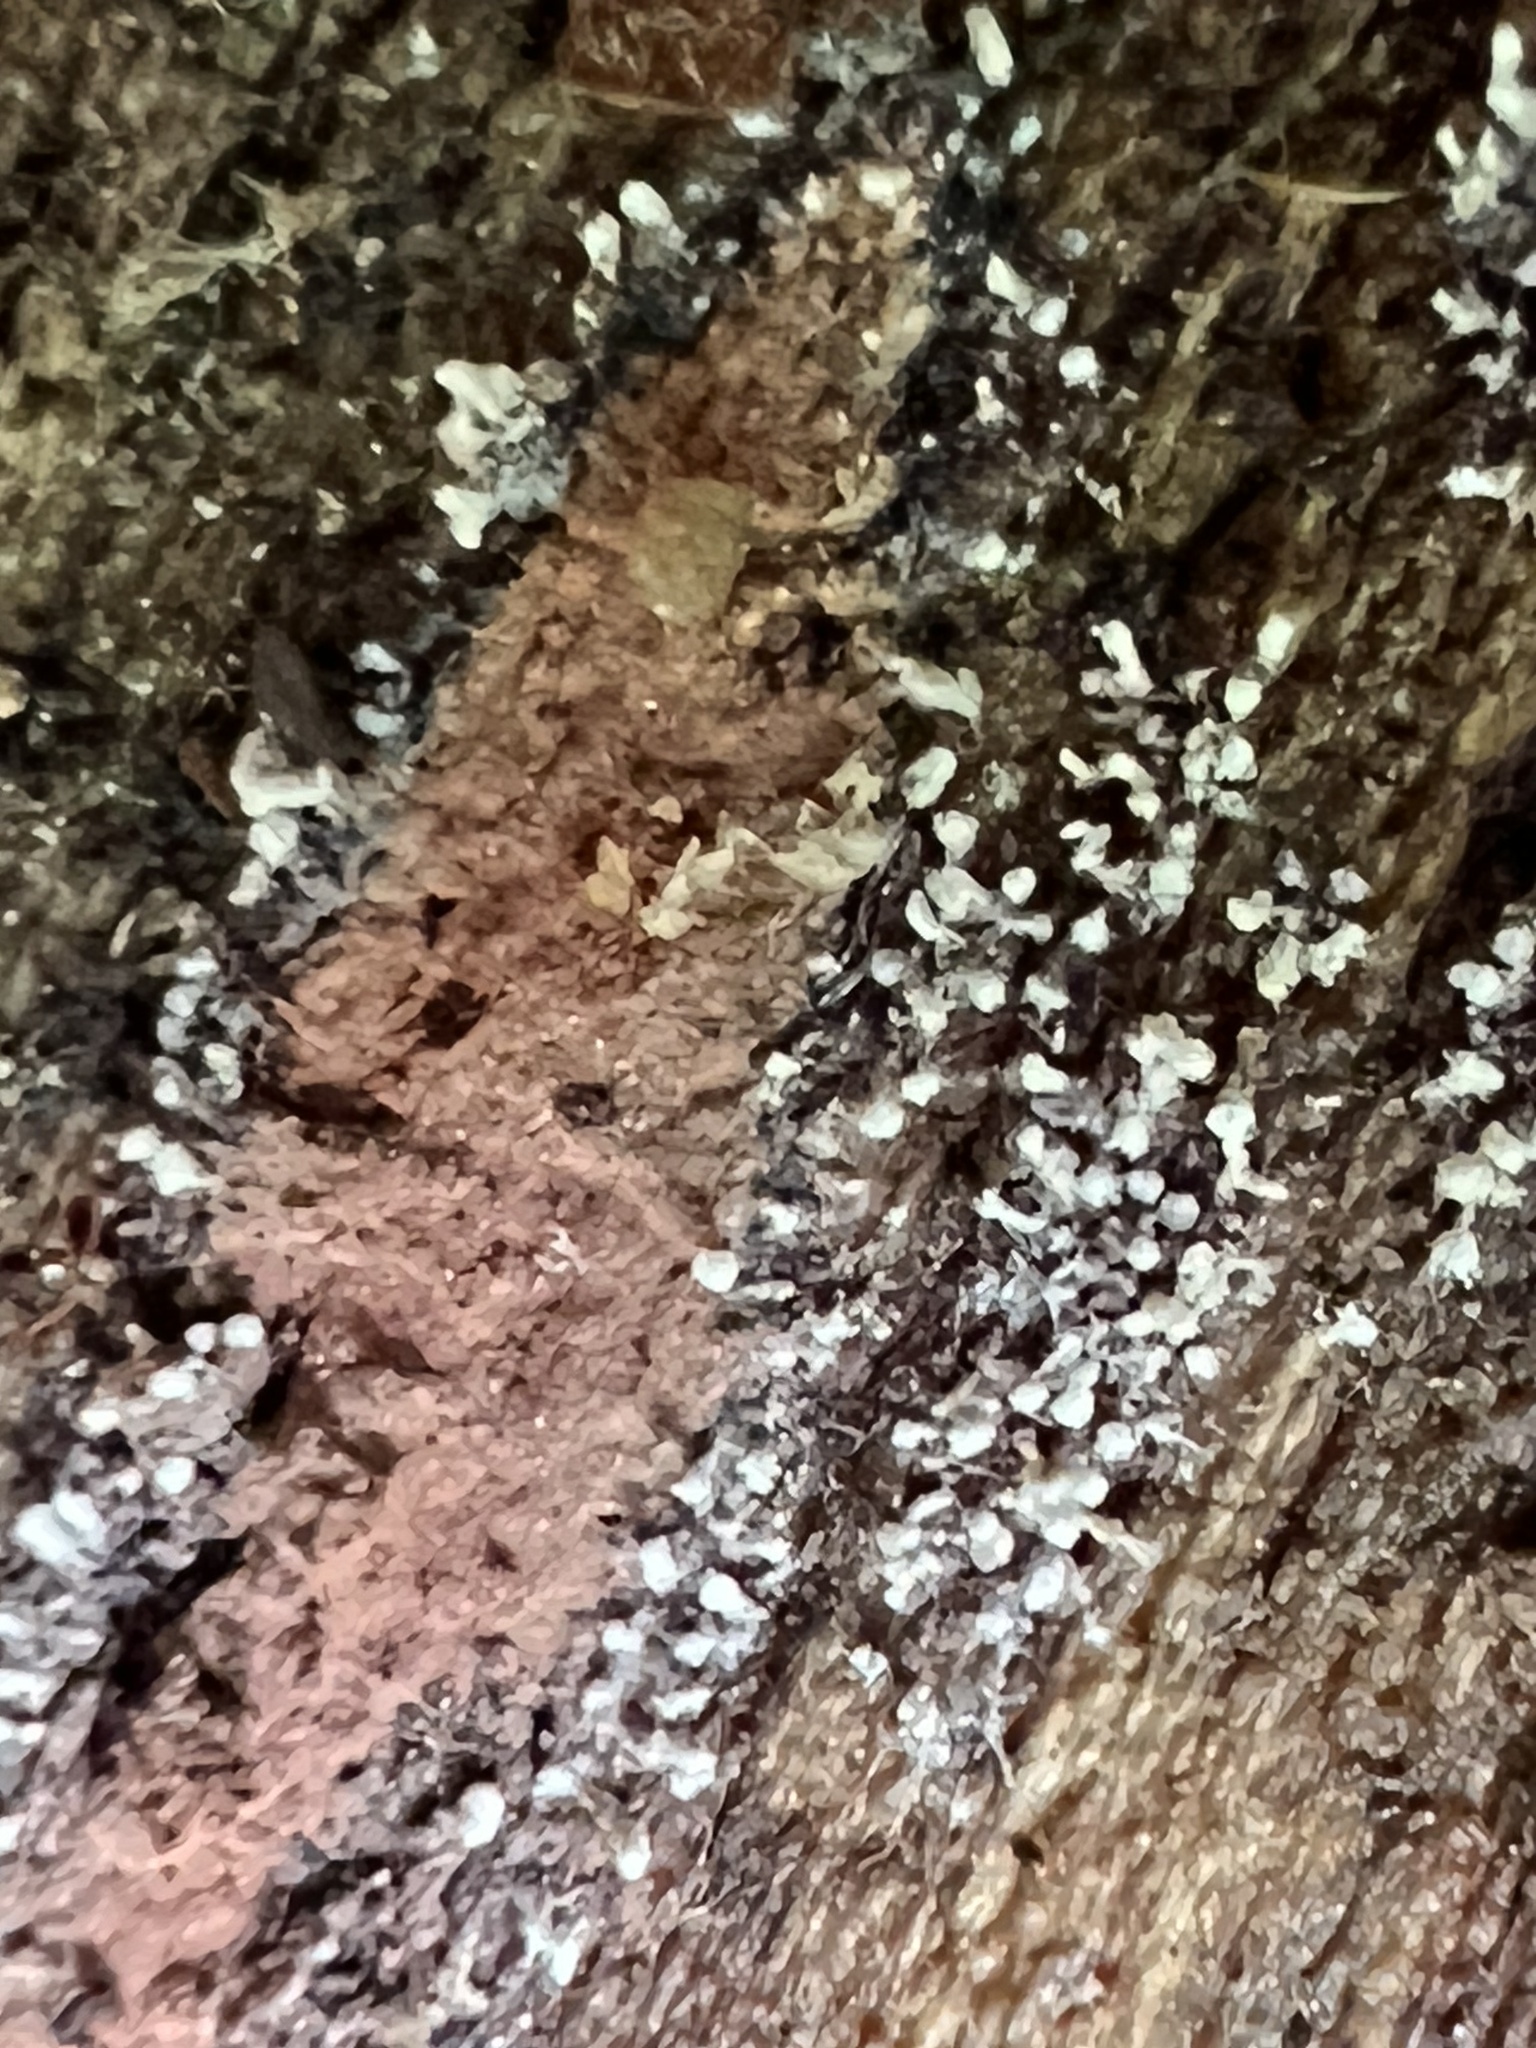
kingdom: Fungi
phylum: Ascomycota
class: Sordariomycetes
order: Xylariales
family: Hypoxylaceae
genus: Hypoxylon
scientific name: Hypoxylon howeanum
